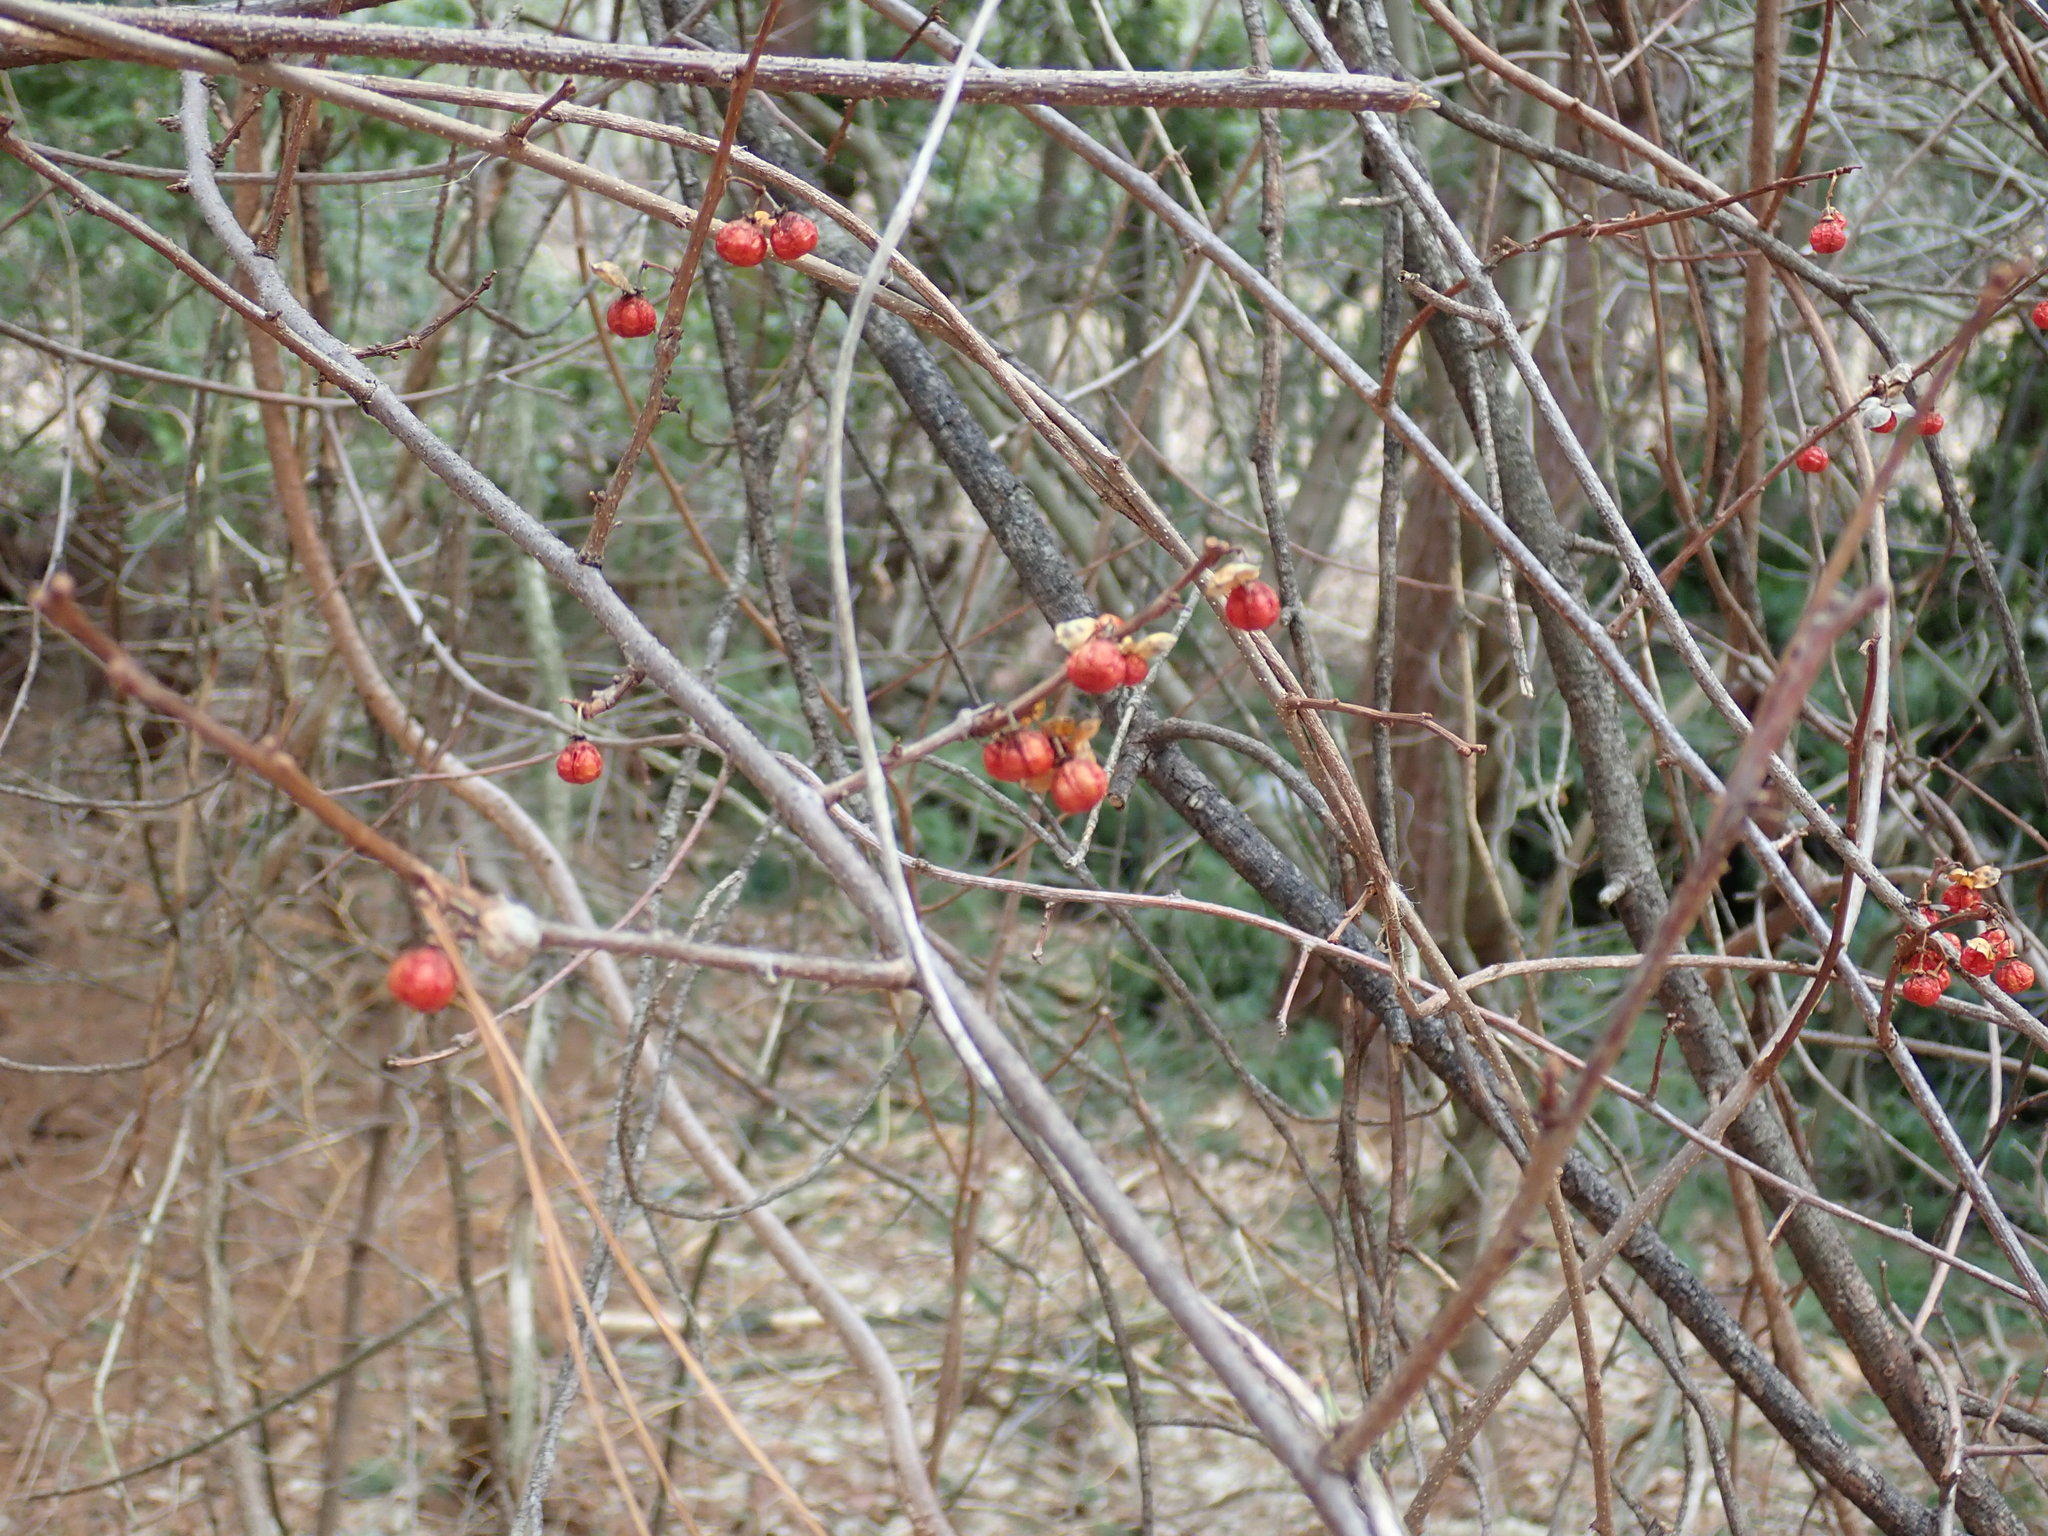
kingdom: Plantae
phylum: Tracheophyta
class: Magnoliopsida
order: Celastrales
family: Celastraceae
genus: Celastrus
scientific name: Celastrus orbiculatus
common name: Oriental bittersweet
